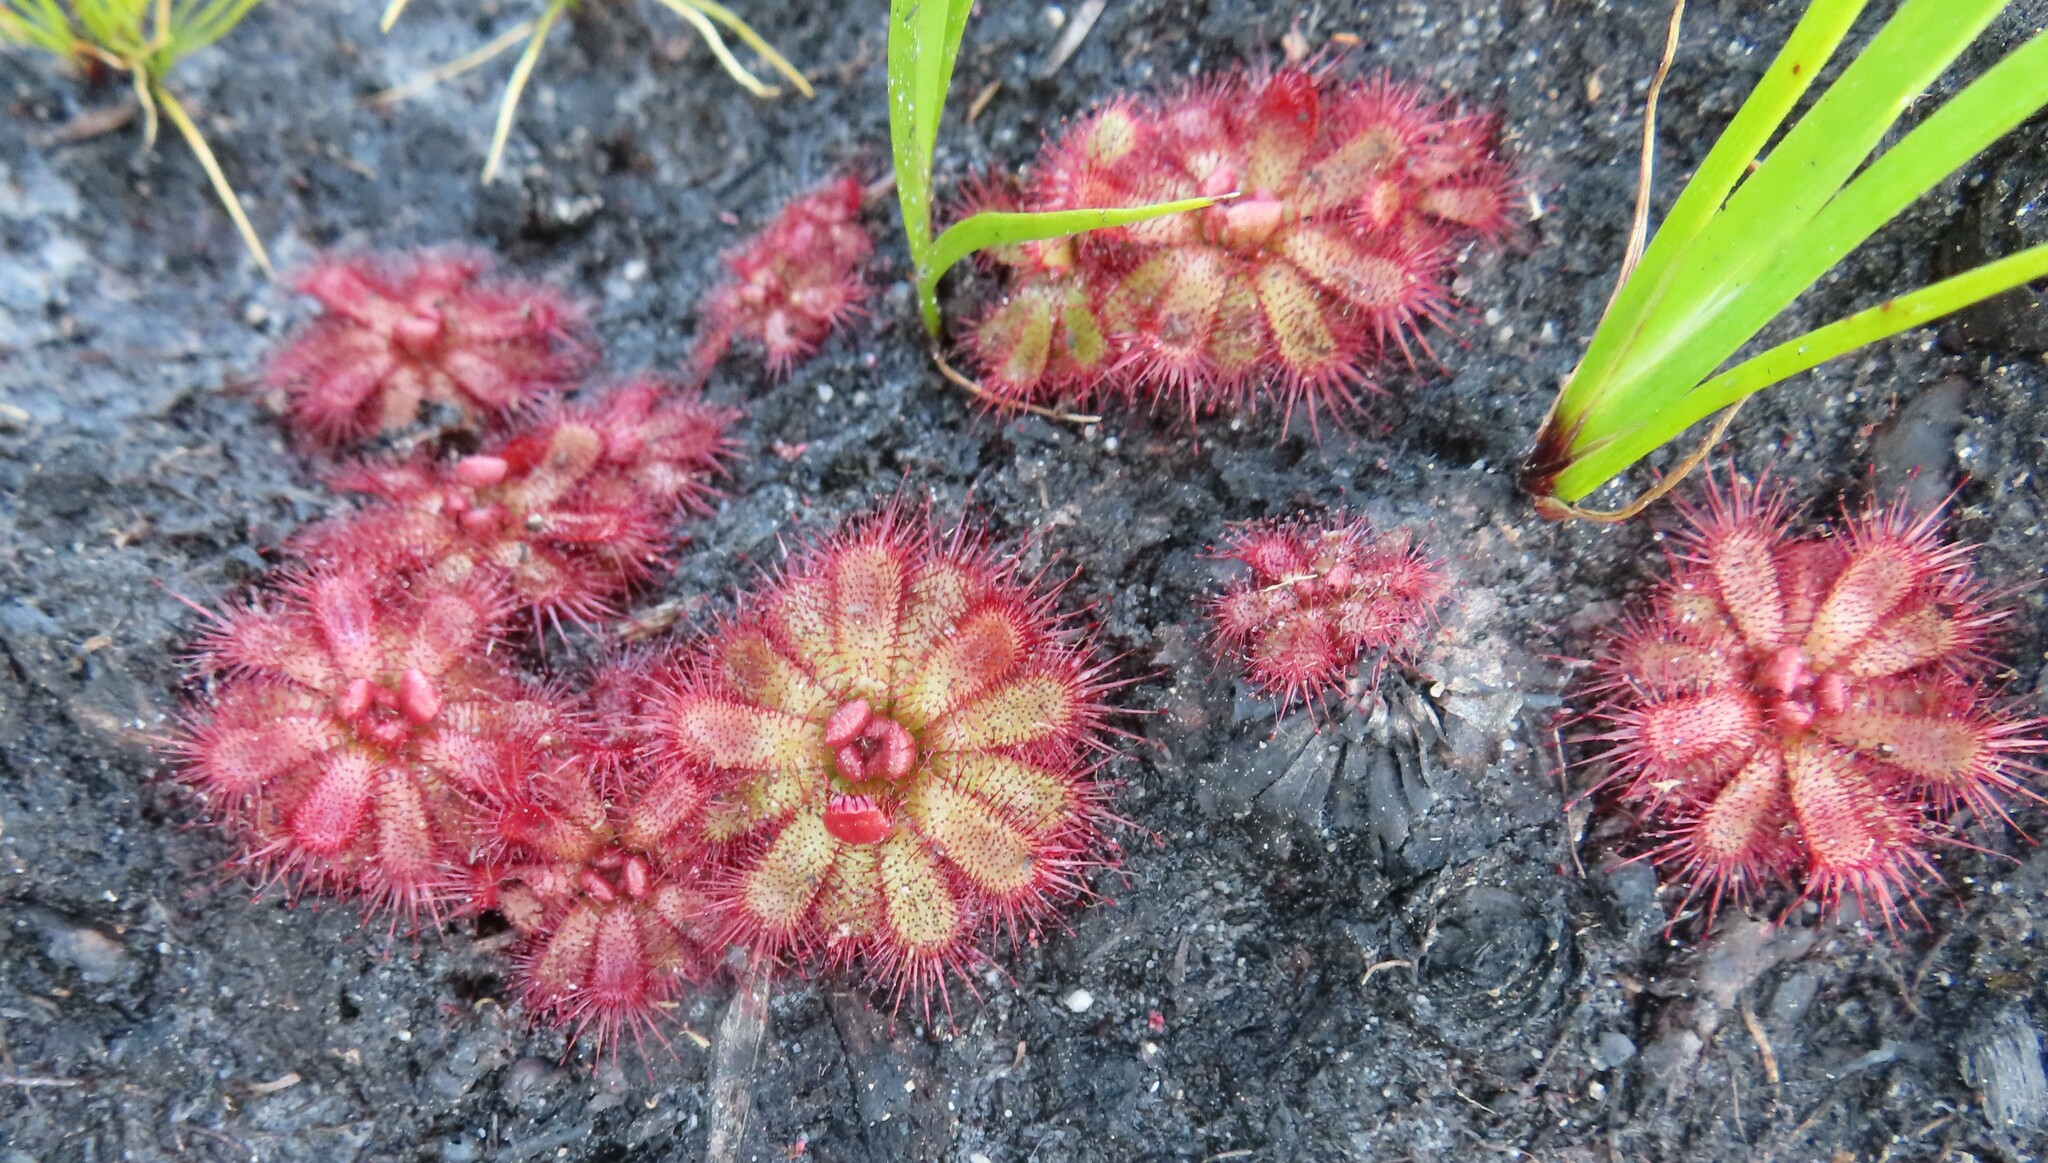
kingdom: Plantae
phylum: Tracheophyta
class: Magnoliopsida
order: Caryophyllales
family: Droseraceae
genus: Drosera
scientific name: Drosera cuneifolia
